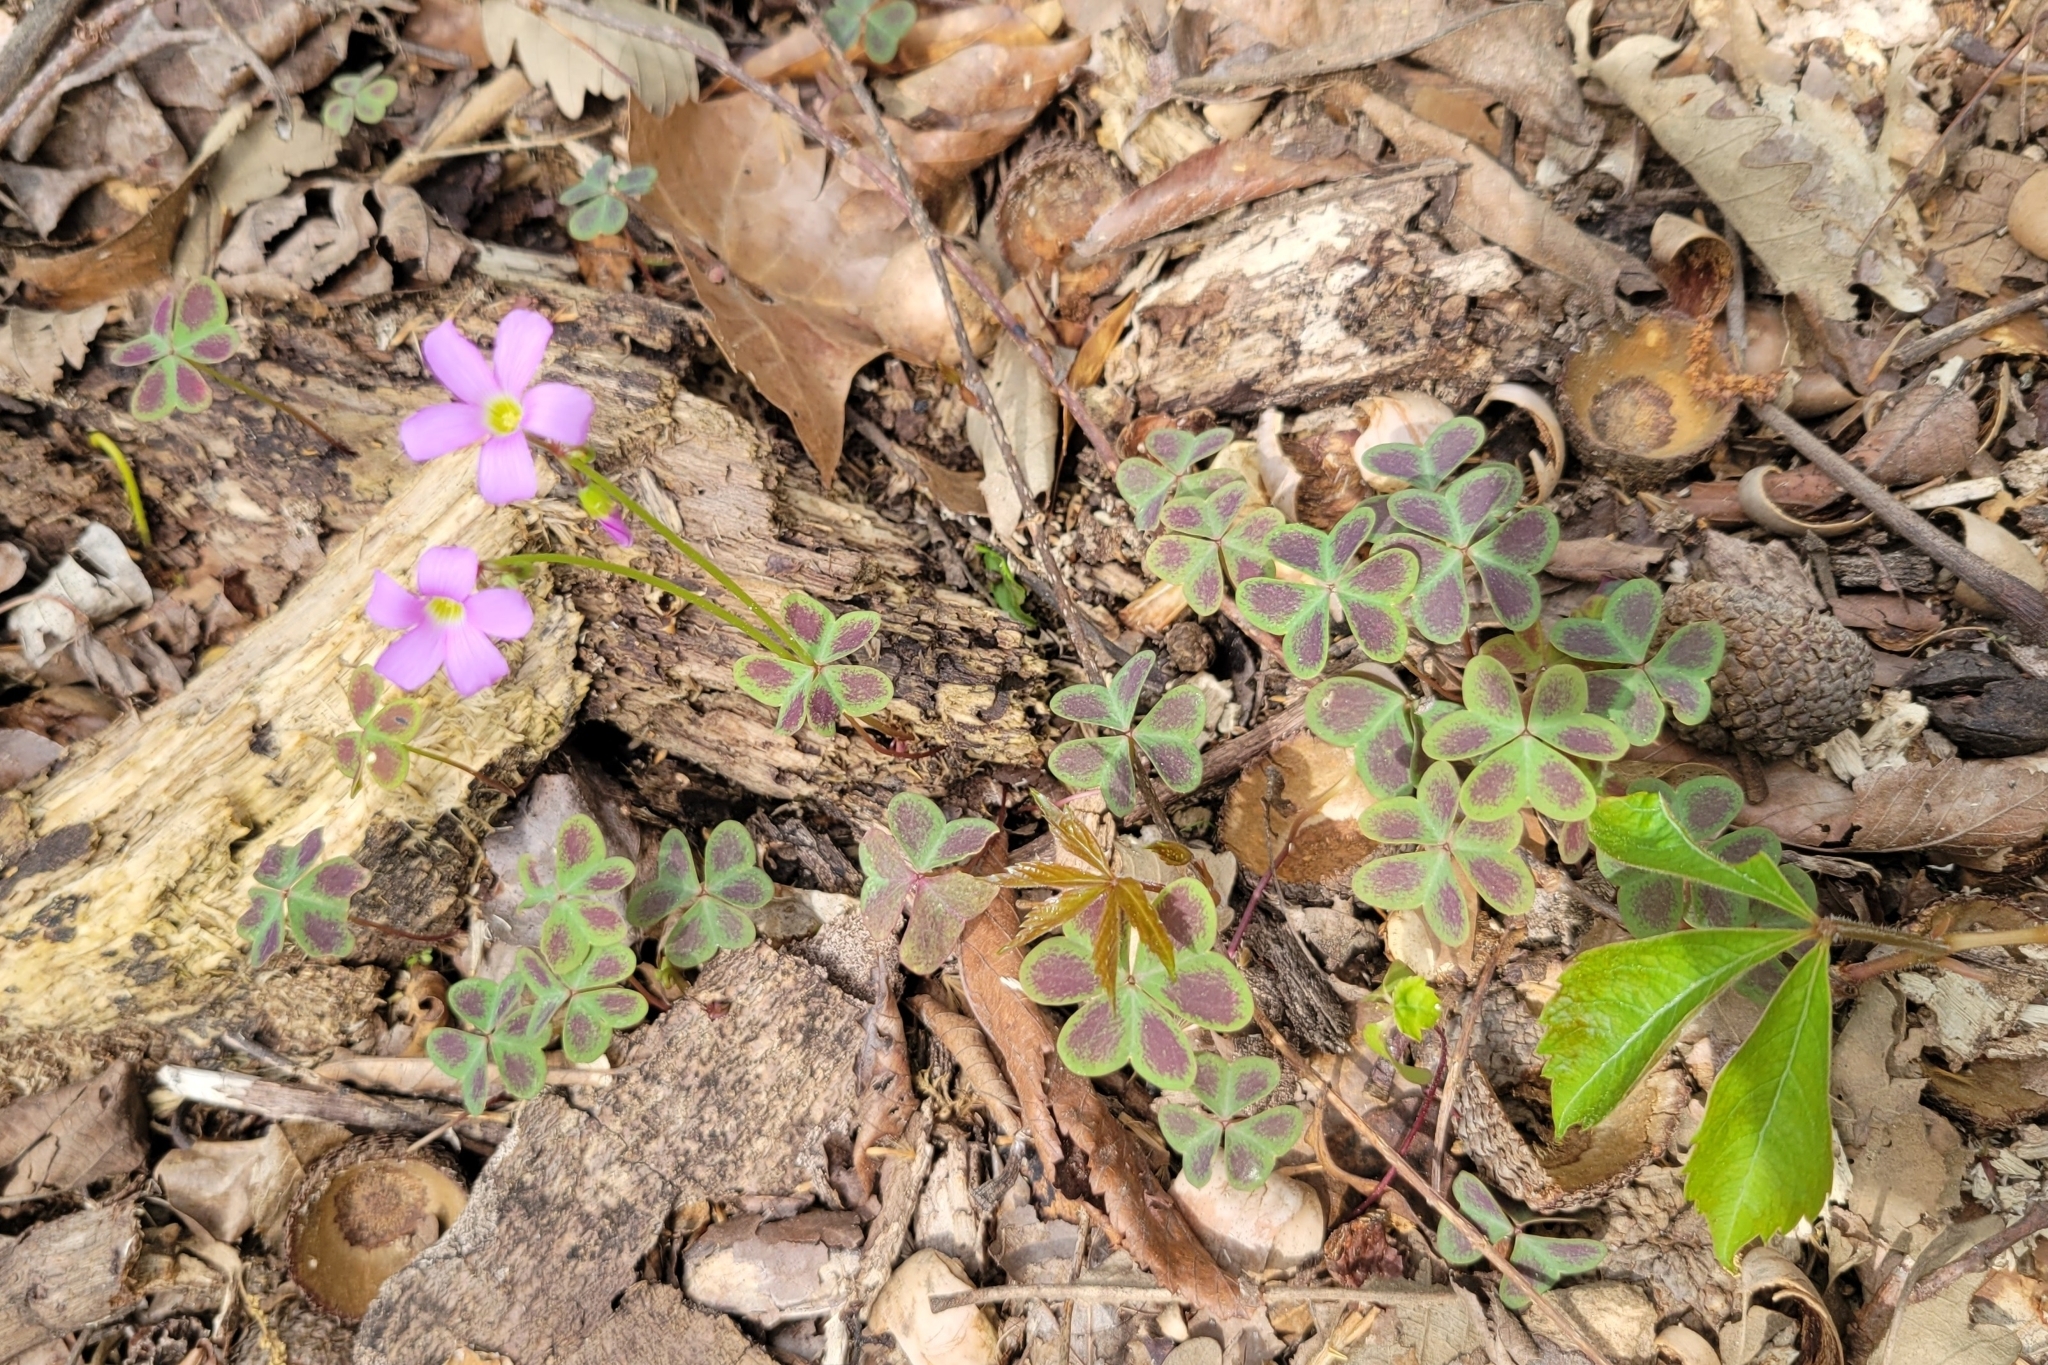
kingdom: Plantae
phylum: Tracheophyta
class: Magnoliopsida
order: Oxalidales
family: Oxalidaceae
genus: Oxalis
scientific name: Oxalis violacea
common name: Violet wood-sorrel
